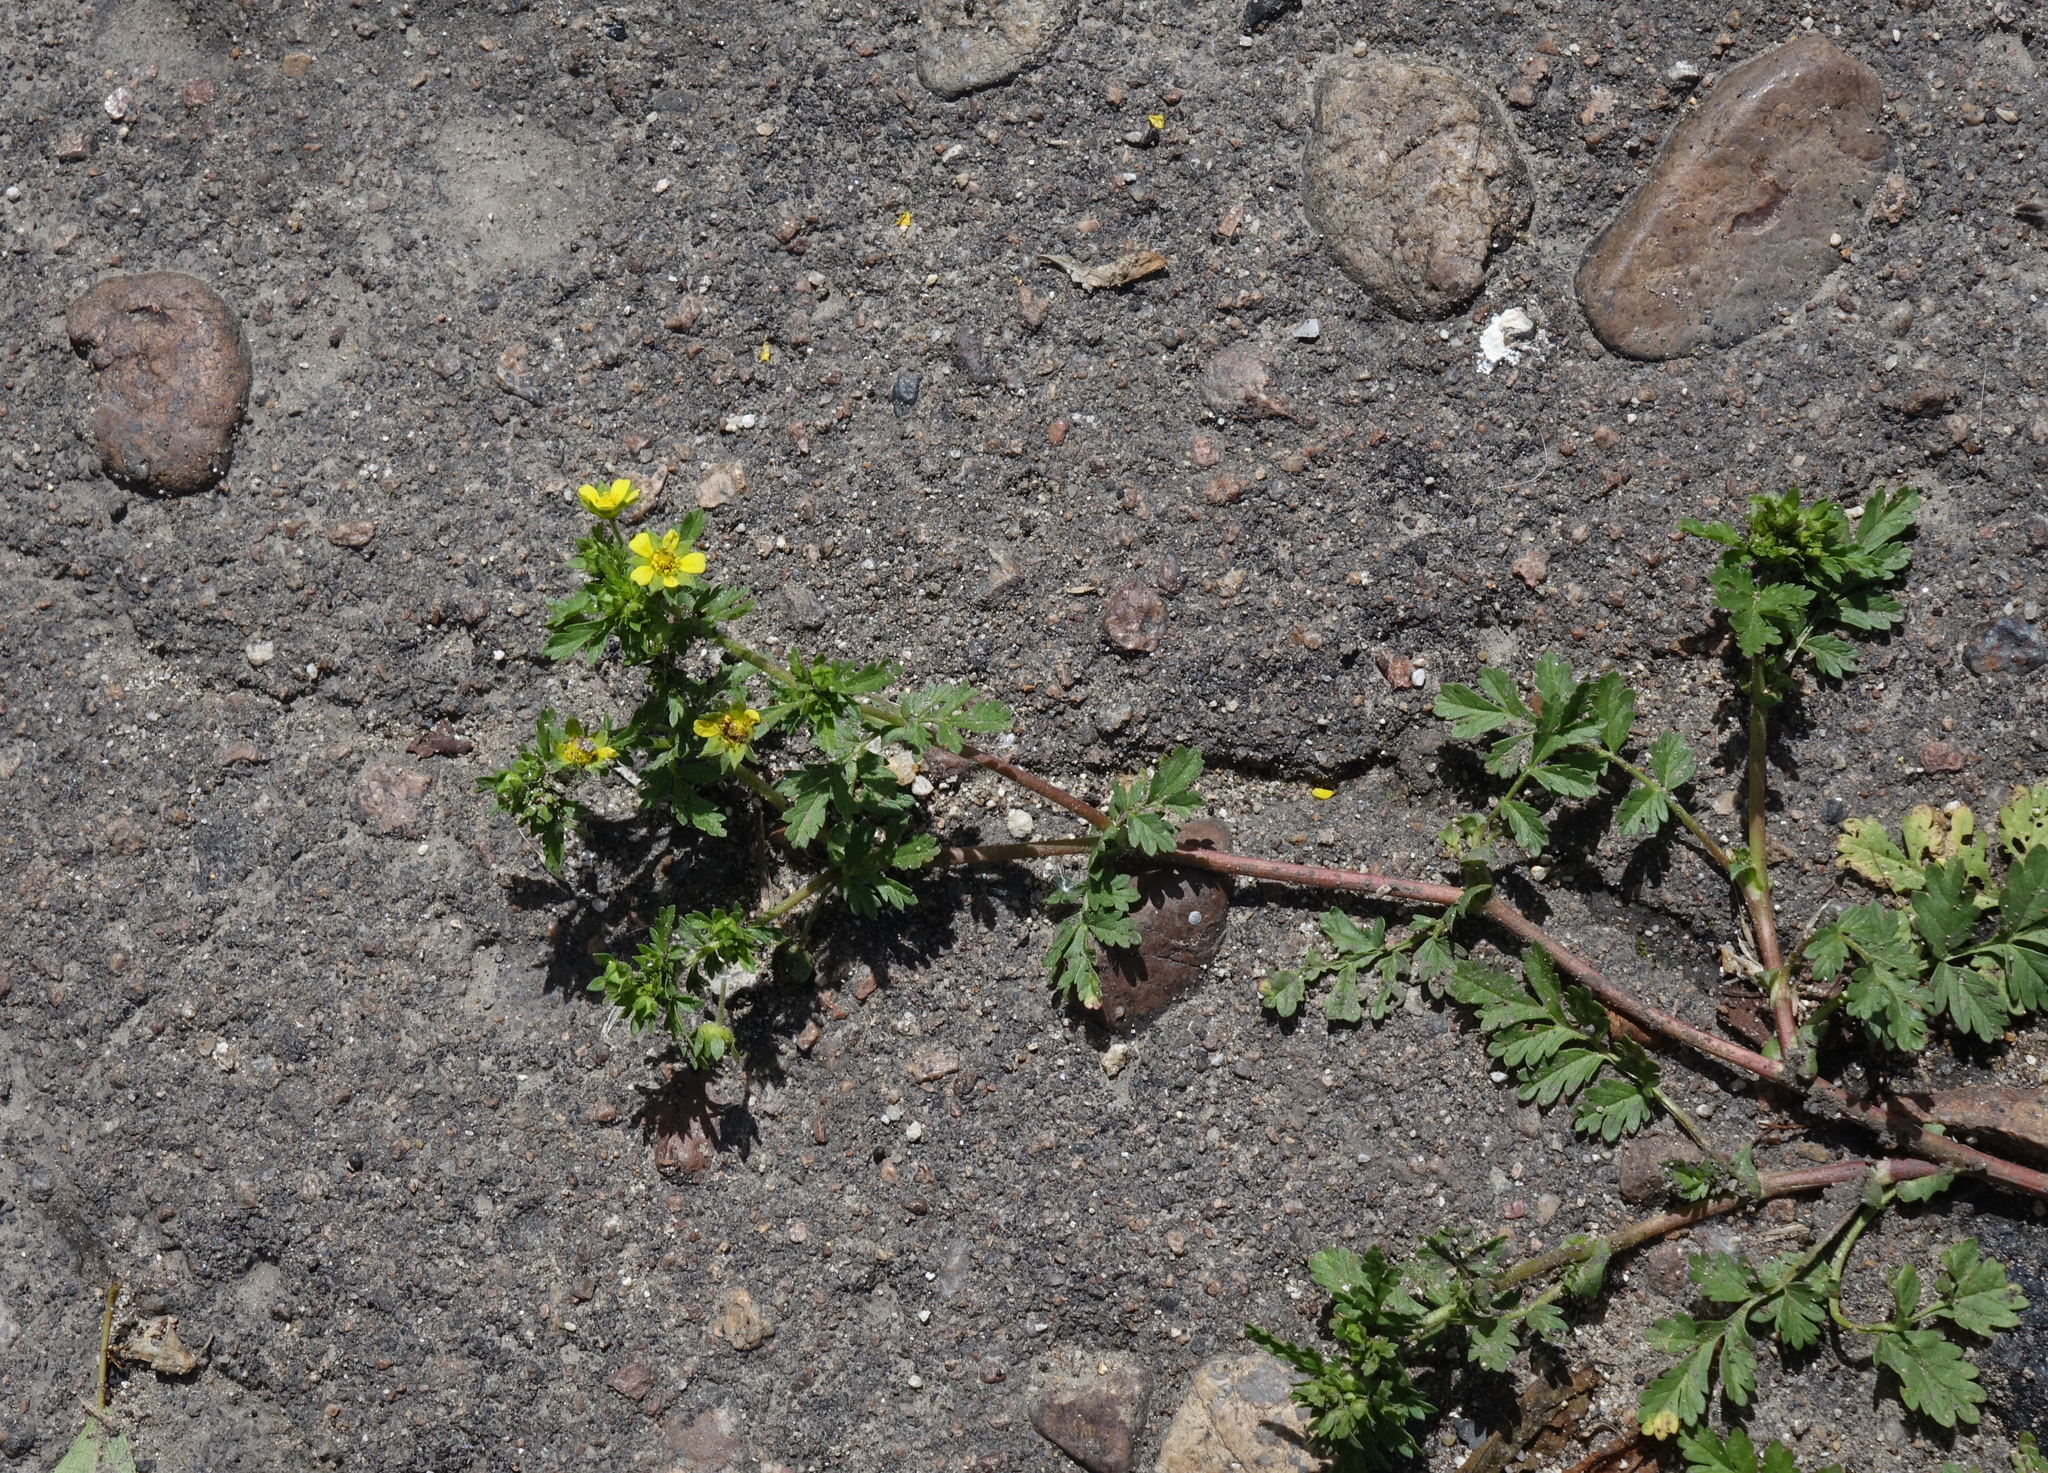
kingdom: Plantae
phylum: Tracheophyta
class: Magnoliopsida
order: Rosales
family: Rosaceae
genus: Potentilla
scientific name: Potentilla supina
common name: Prostrate cinquefoil
